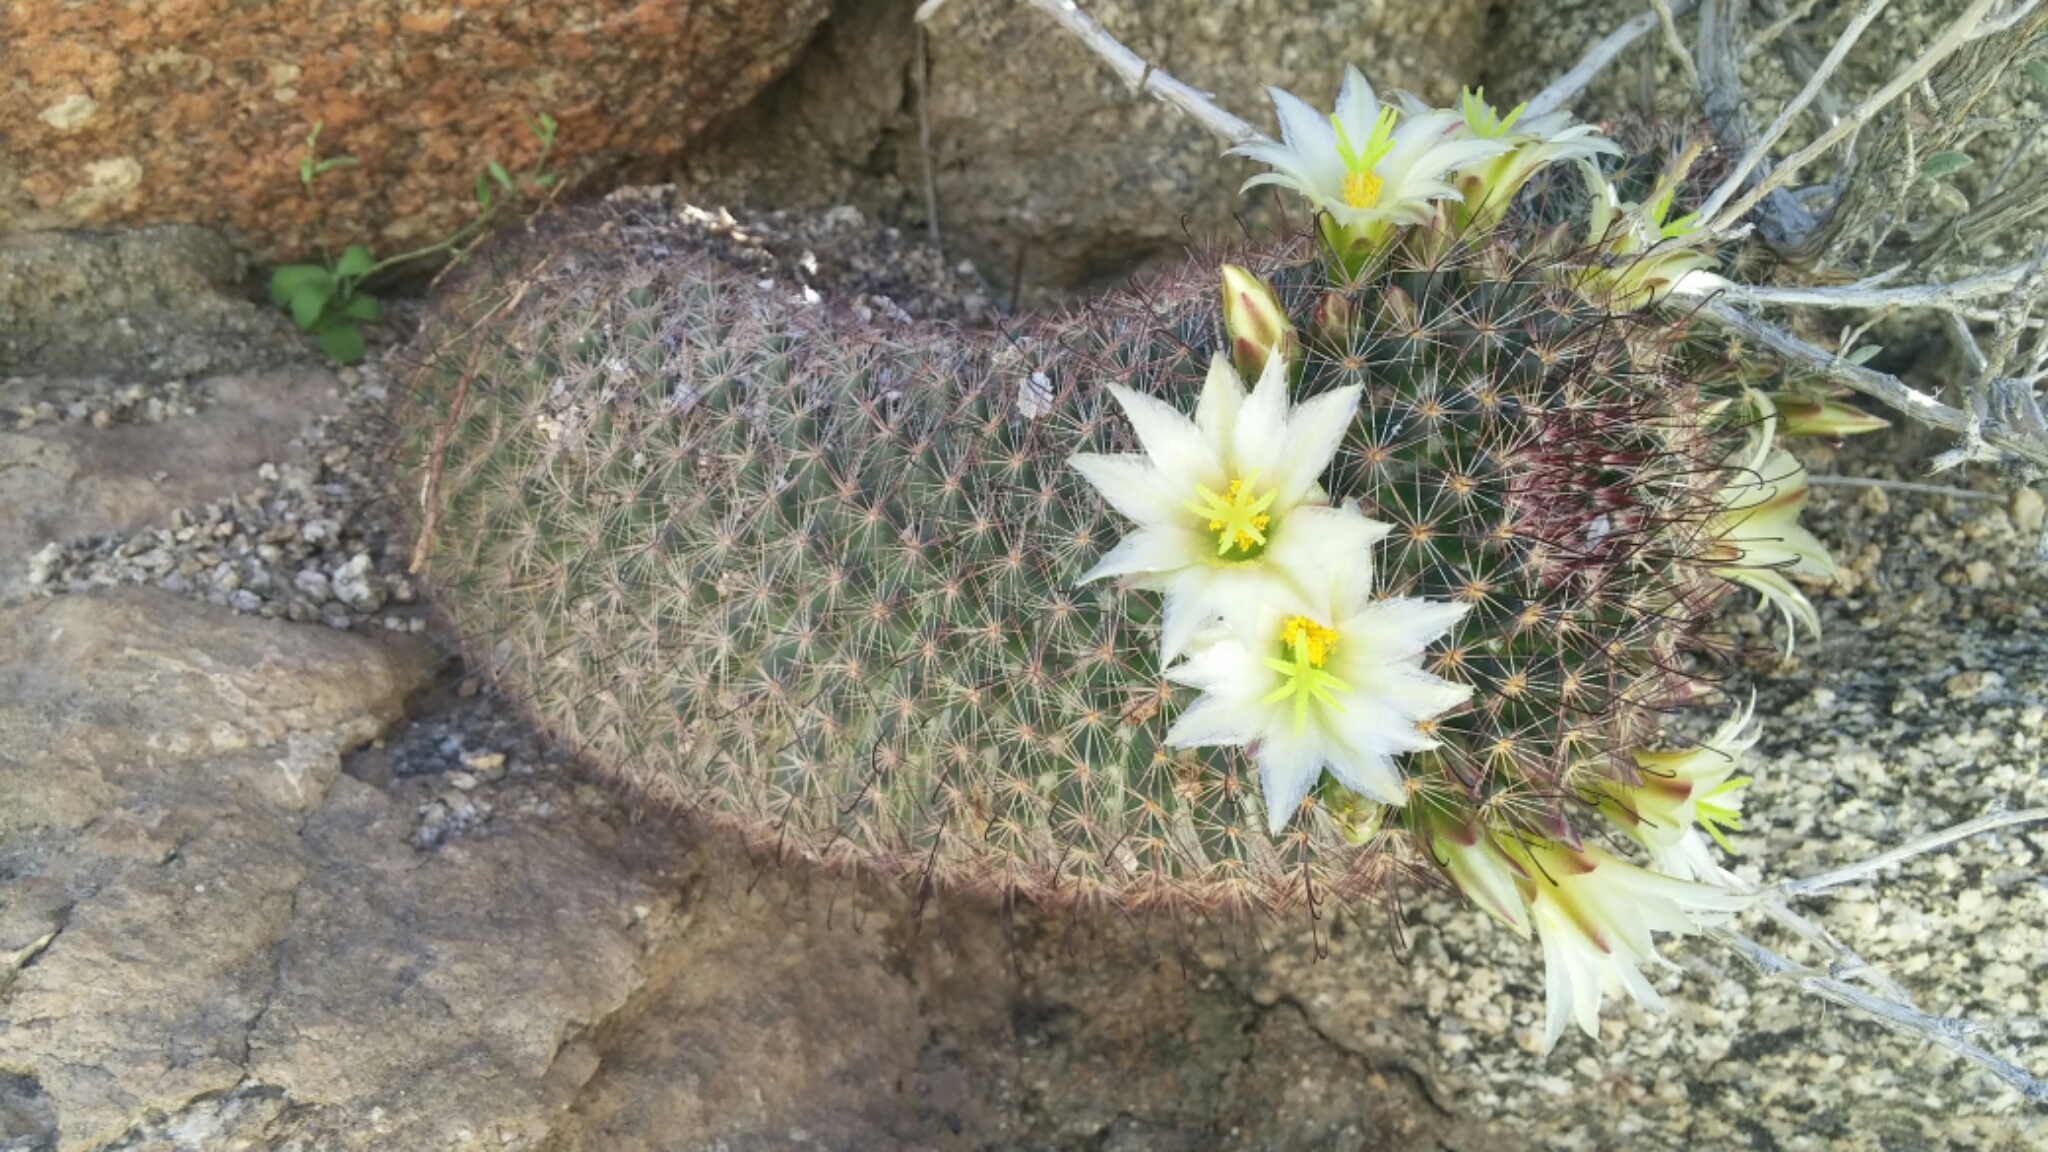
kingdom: Plantae
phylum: Tracheophyta
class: Magnoliopsida
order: Caryophyllales
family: Cactaceae
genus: Cochemiea
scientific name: Cochemiea dioica
